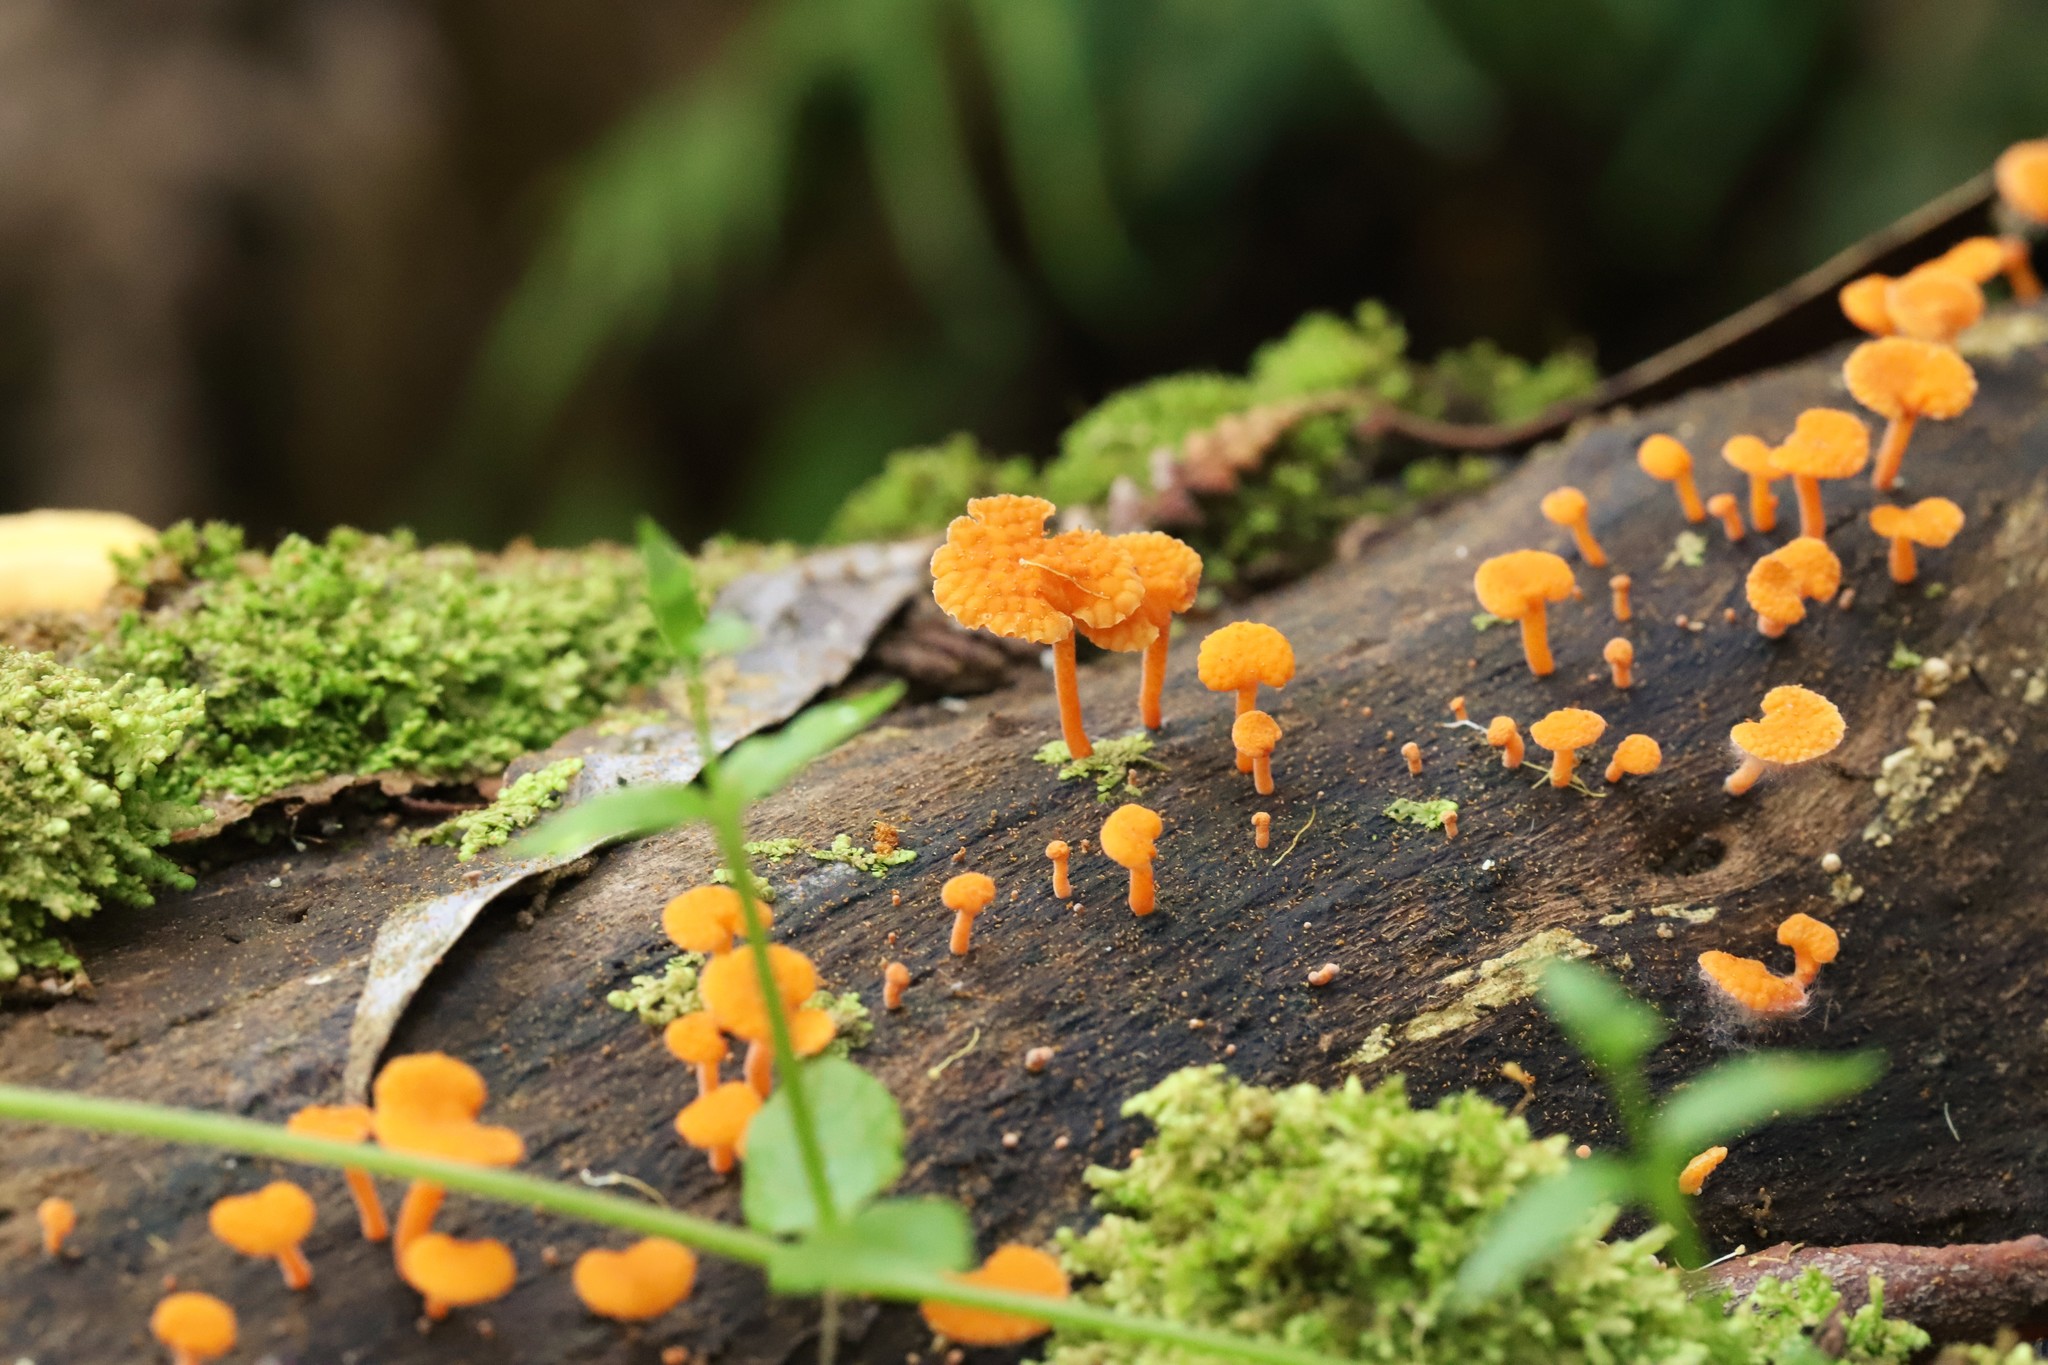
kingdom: Fungi
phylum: Basidiomycota
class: Agaricomycetes
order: Agaricales
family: Mycenaceae
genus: Favolaschia
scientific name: Favolaschia claudopus
